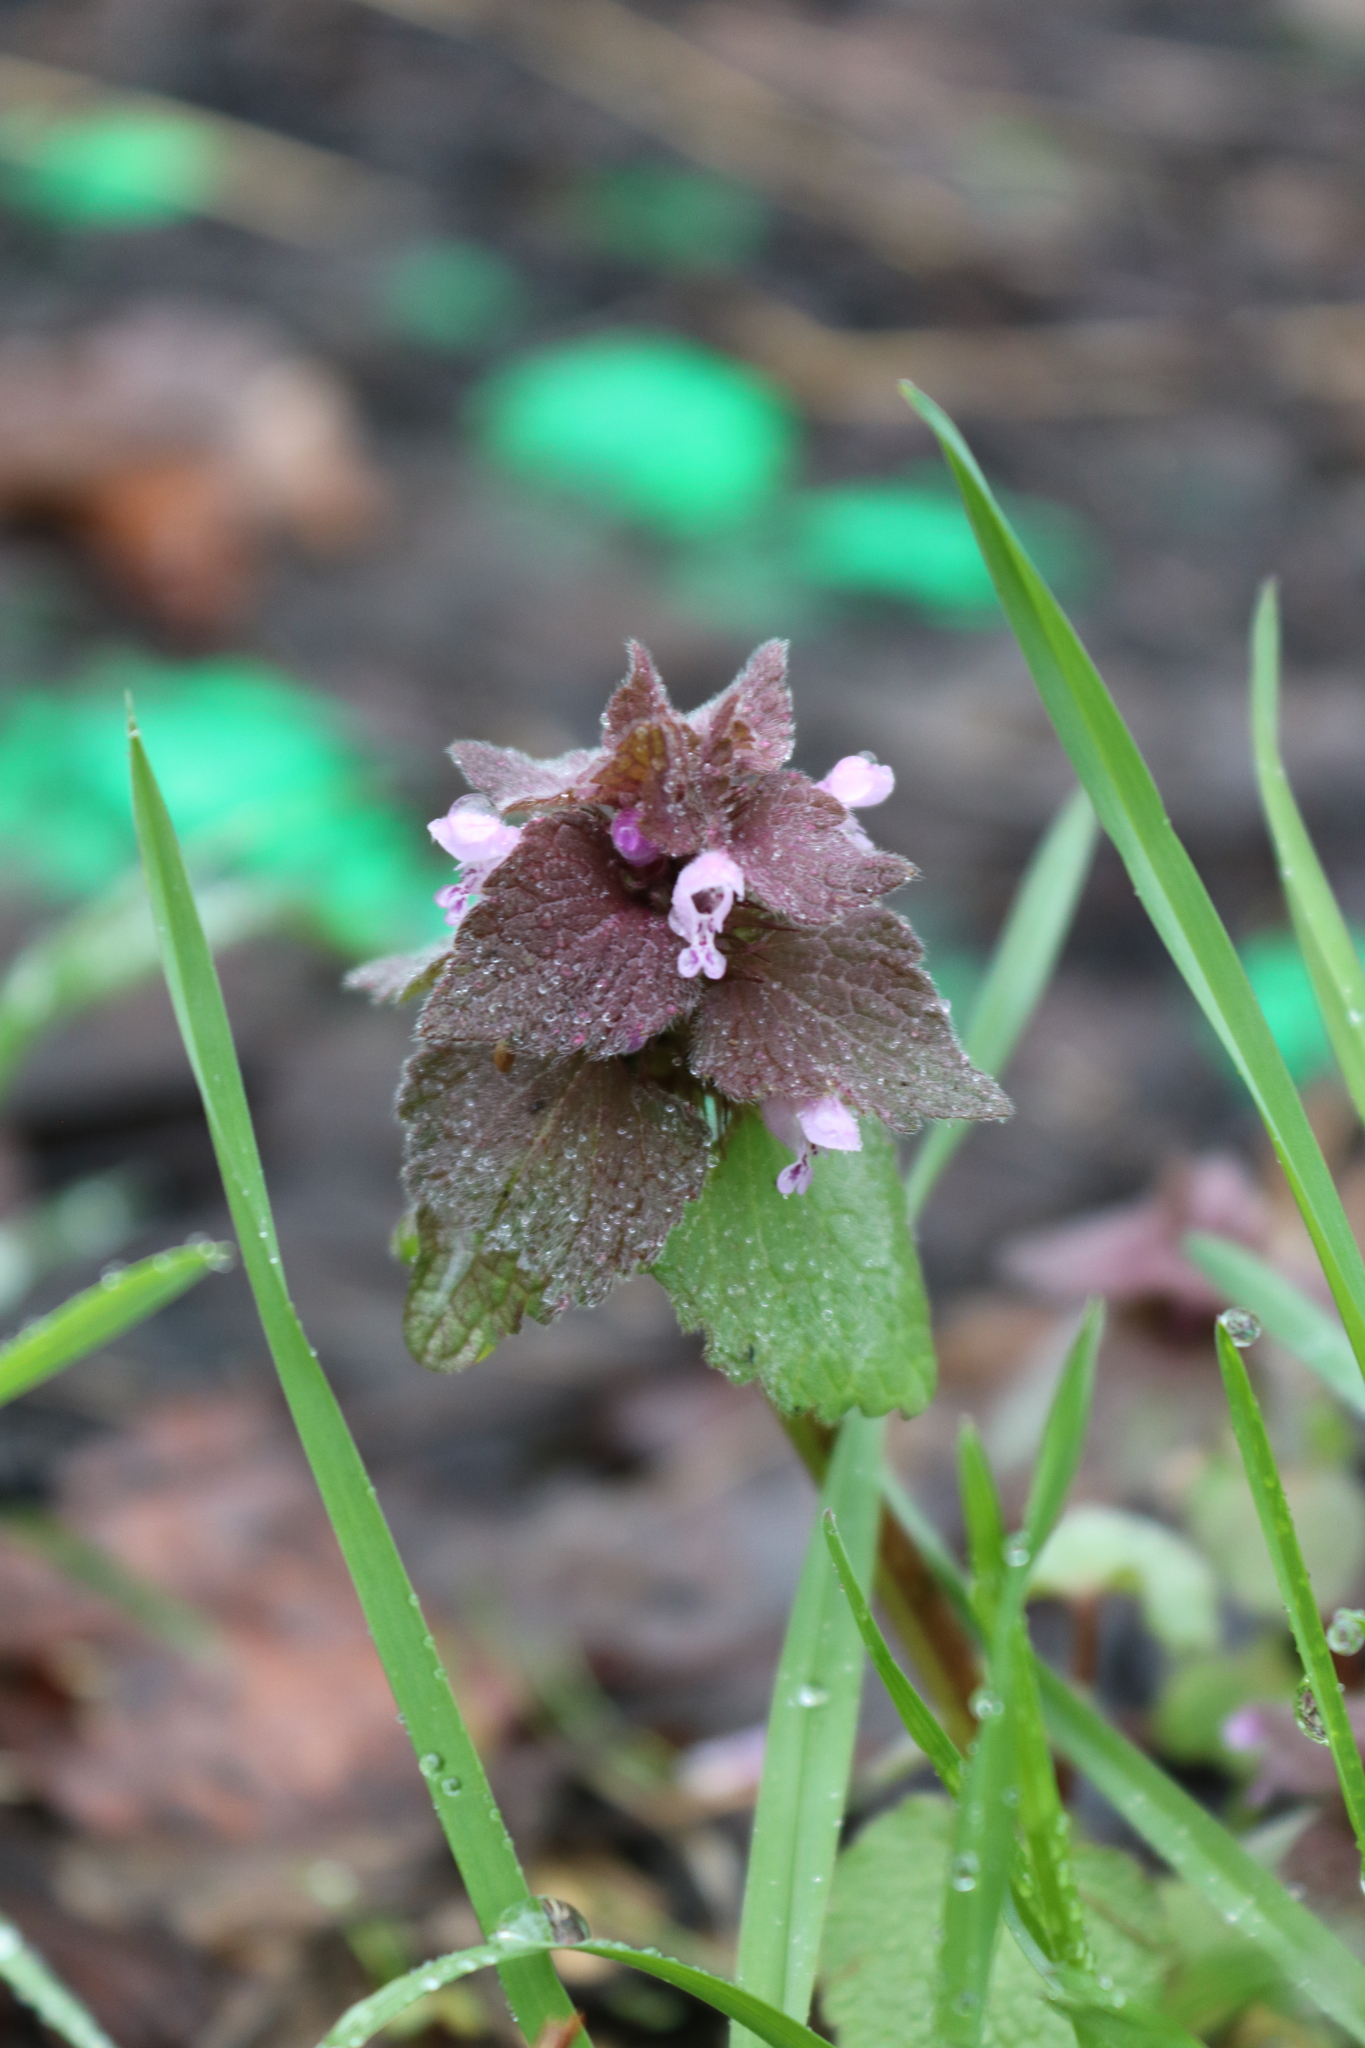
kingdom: Plantae
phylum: Tracheophyta
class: Magnoliopsida
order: Lamiales
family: Lamiaceae
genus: Lamium
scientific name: Lamium purpureum
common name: Red dead-nettle
